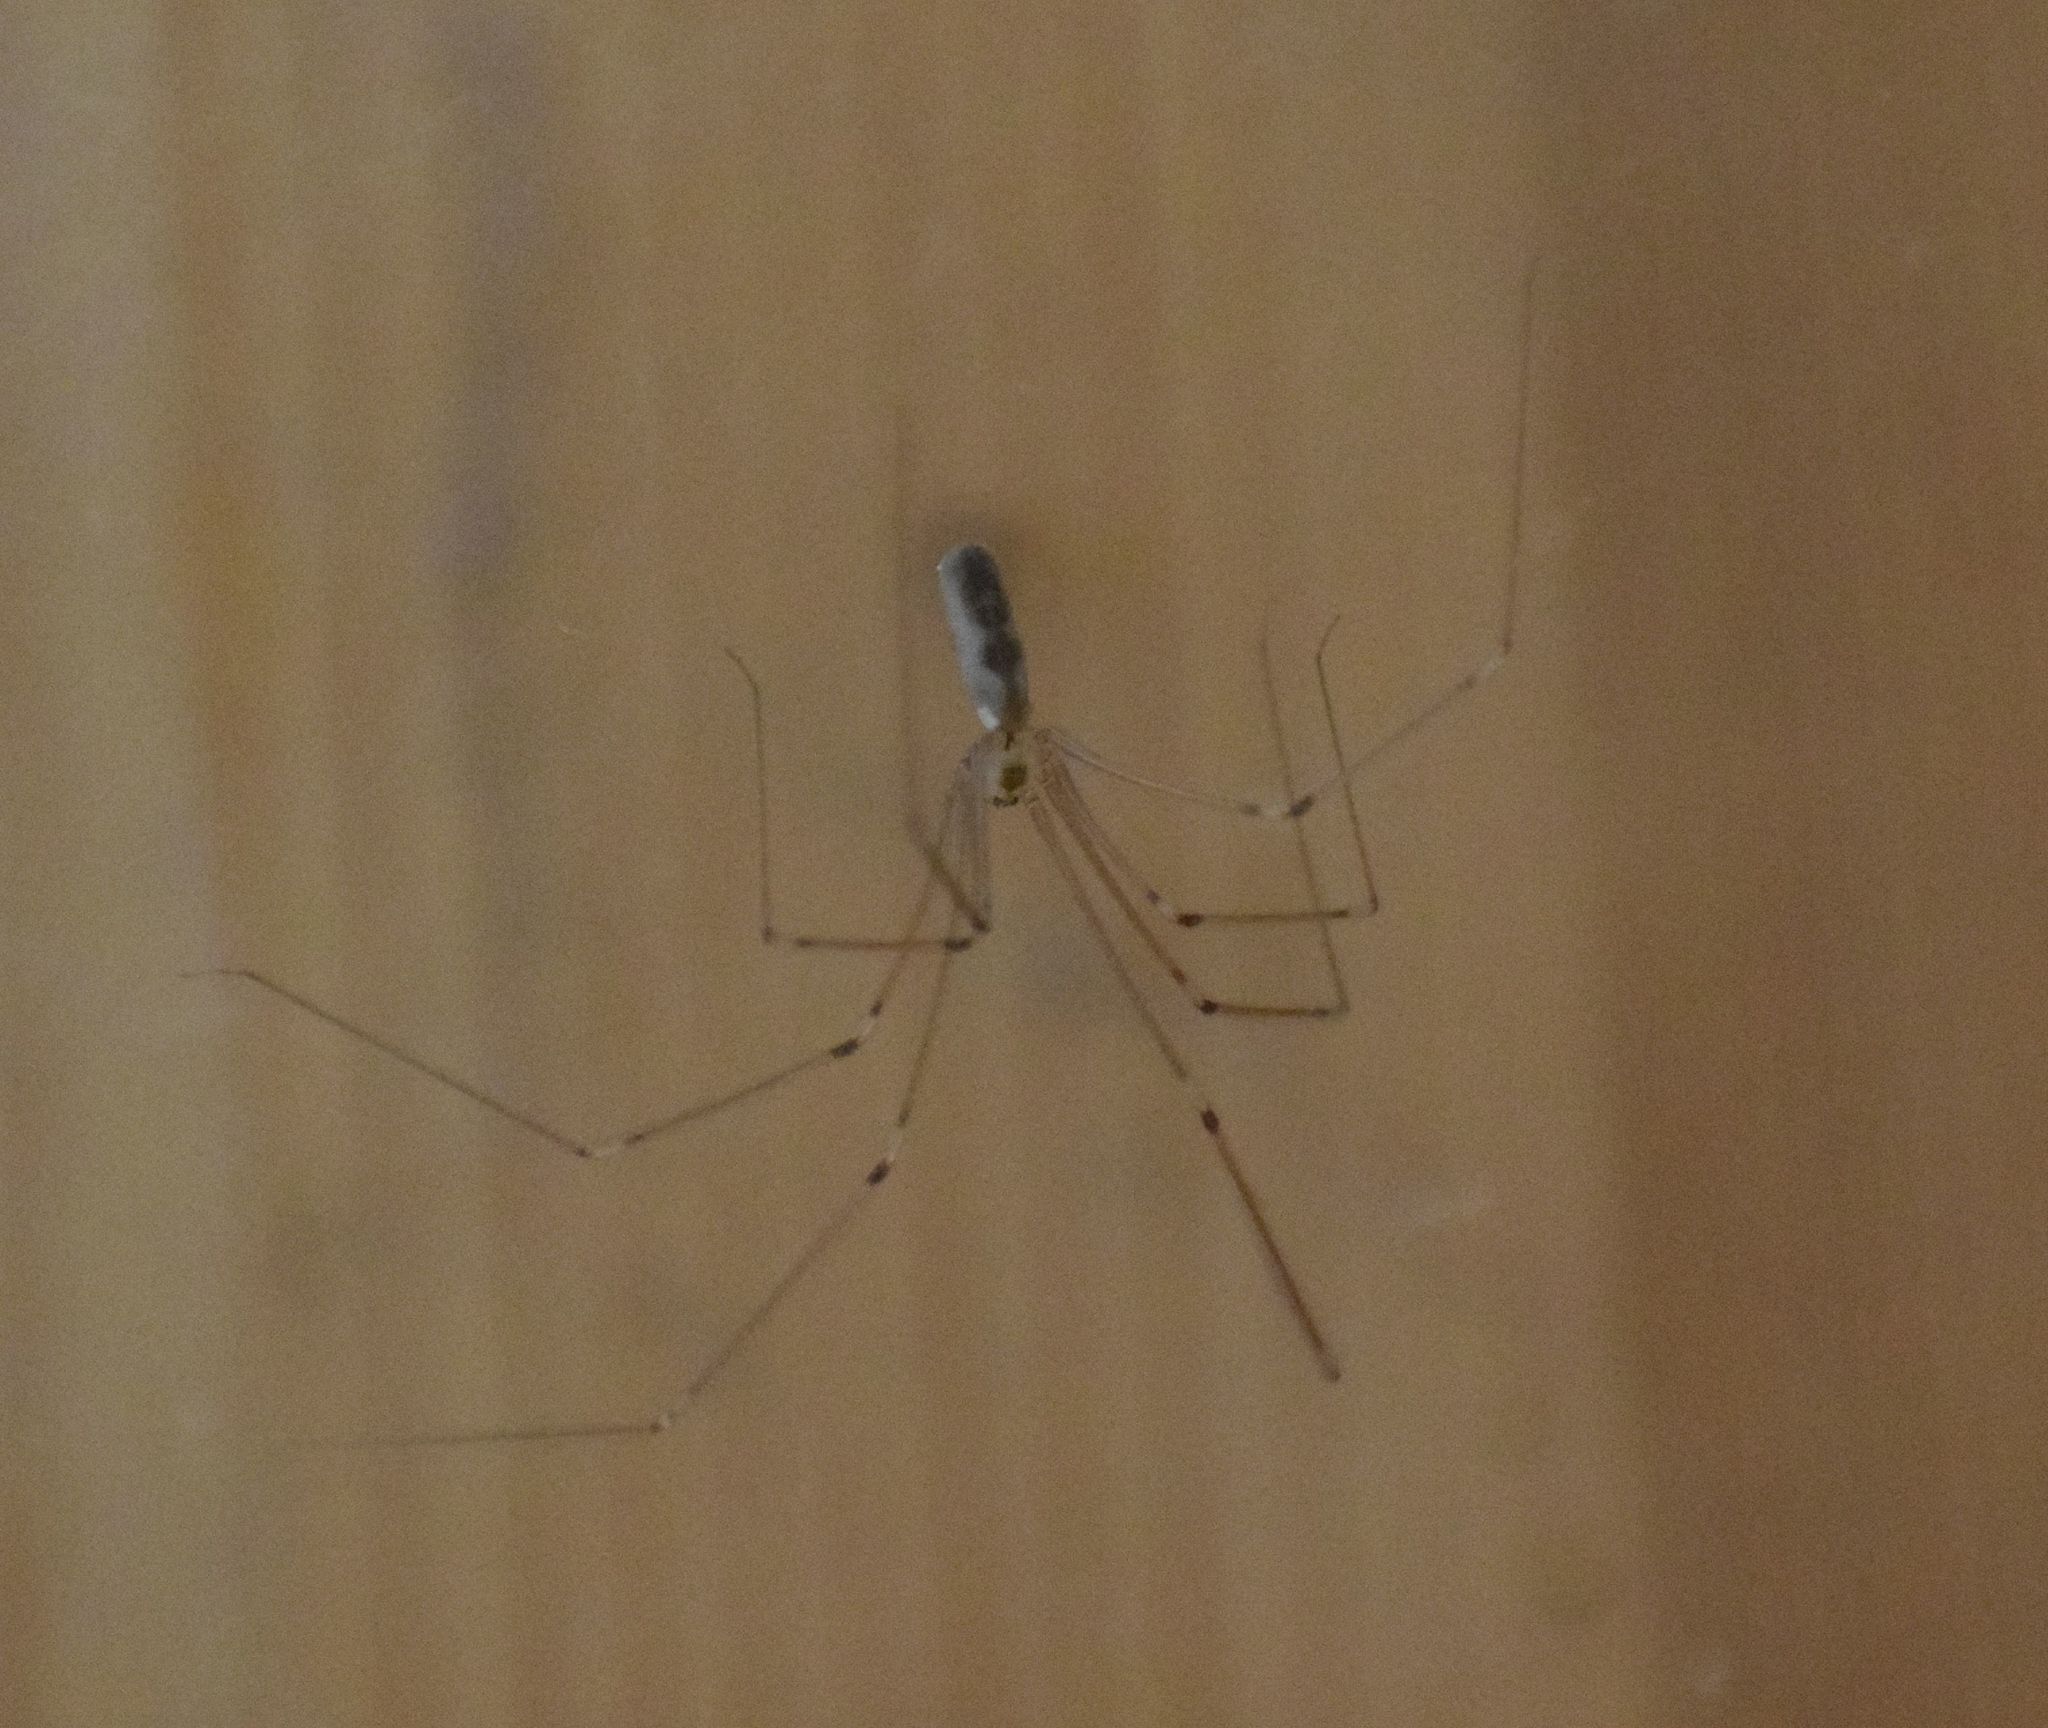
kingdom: Animalia
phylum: Arthropoda
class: Arachnida
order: Araneae
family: Pholcidae
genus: Pholcus
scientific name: Pholcus phalangioides
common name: Longbodied cellar spider
